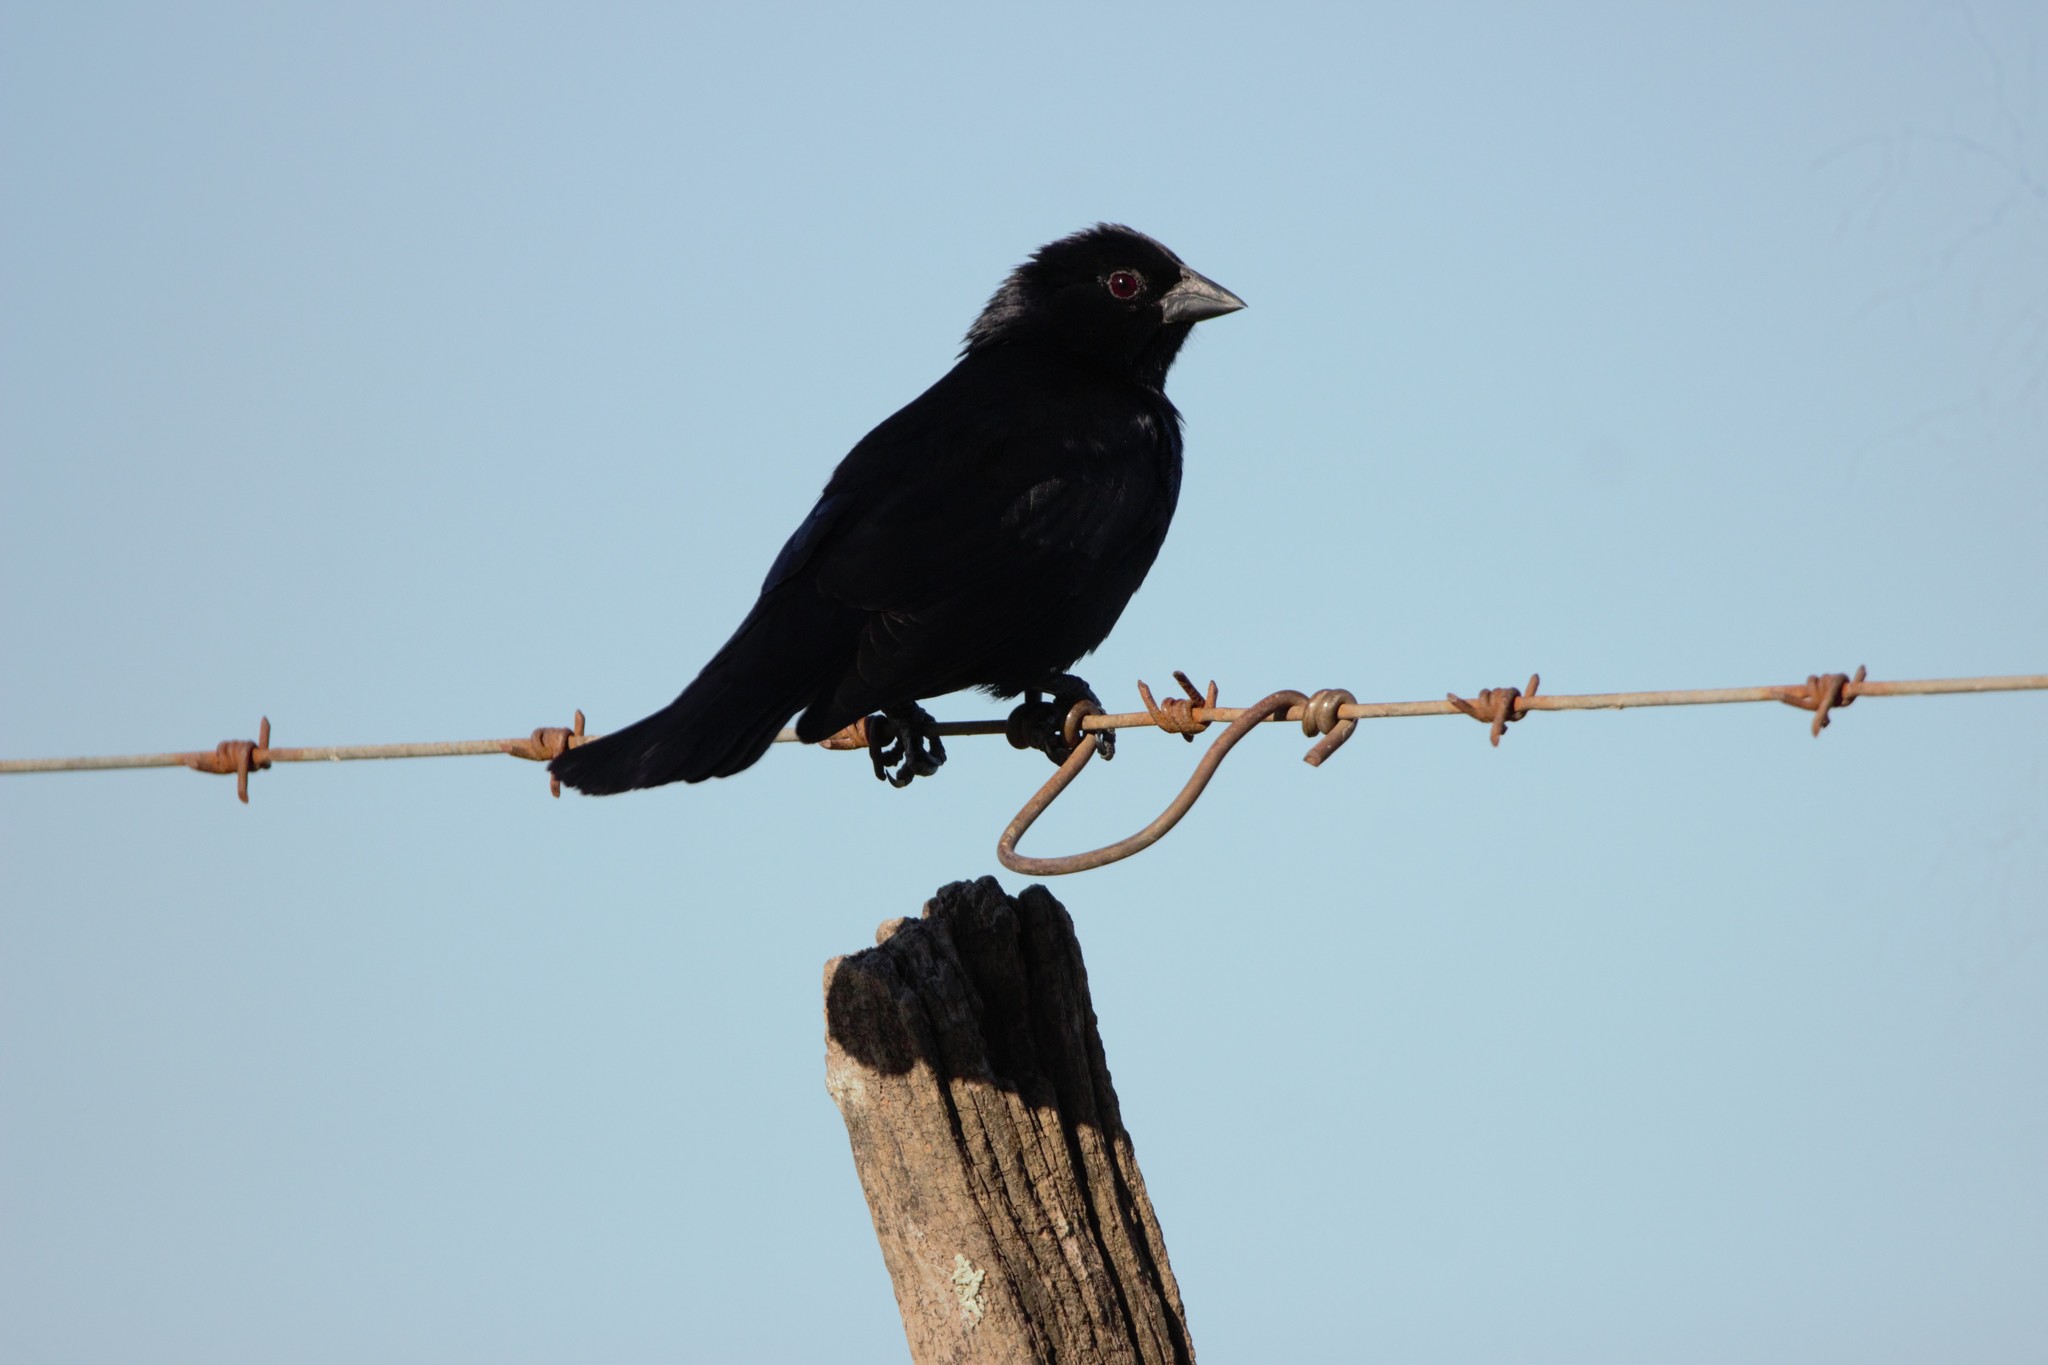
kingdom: Animalia
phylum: Chordata
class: Aves
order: Passeriformes
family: Icteridae
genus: Molothrus
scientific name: Molothrus rufoaxillaris
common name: Screaming cowbird
